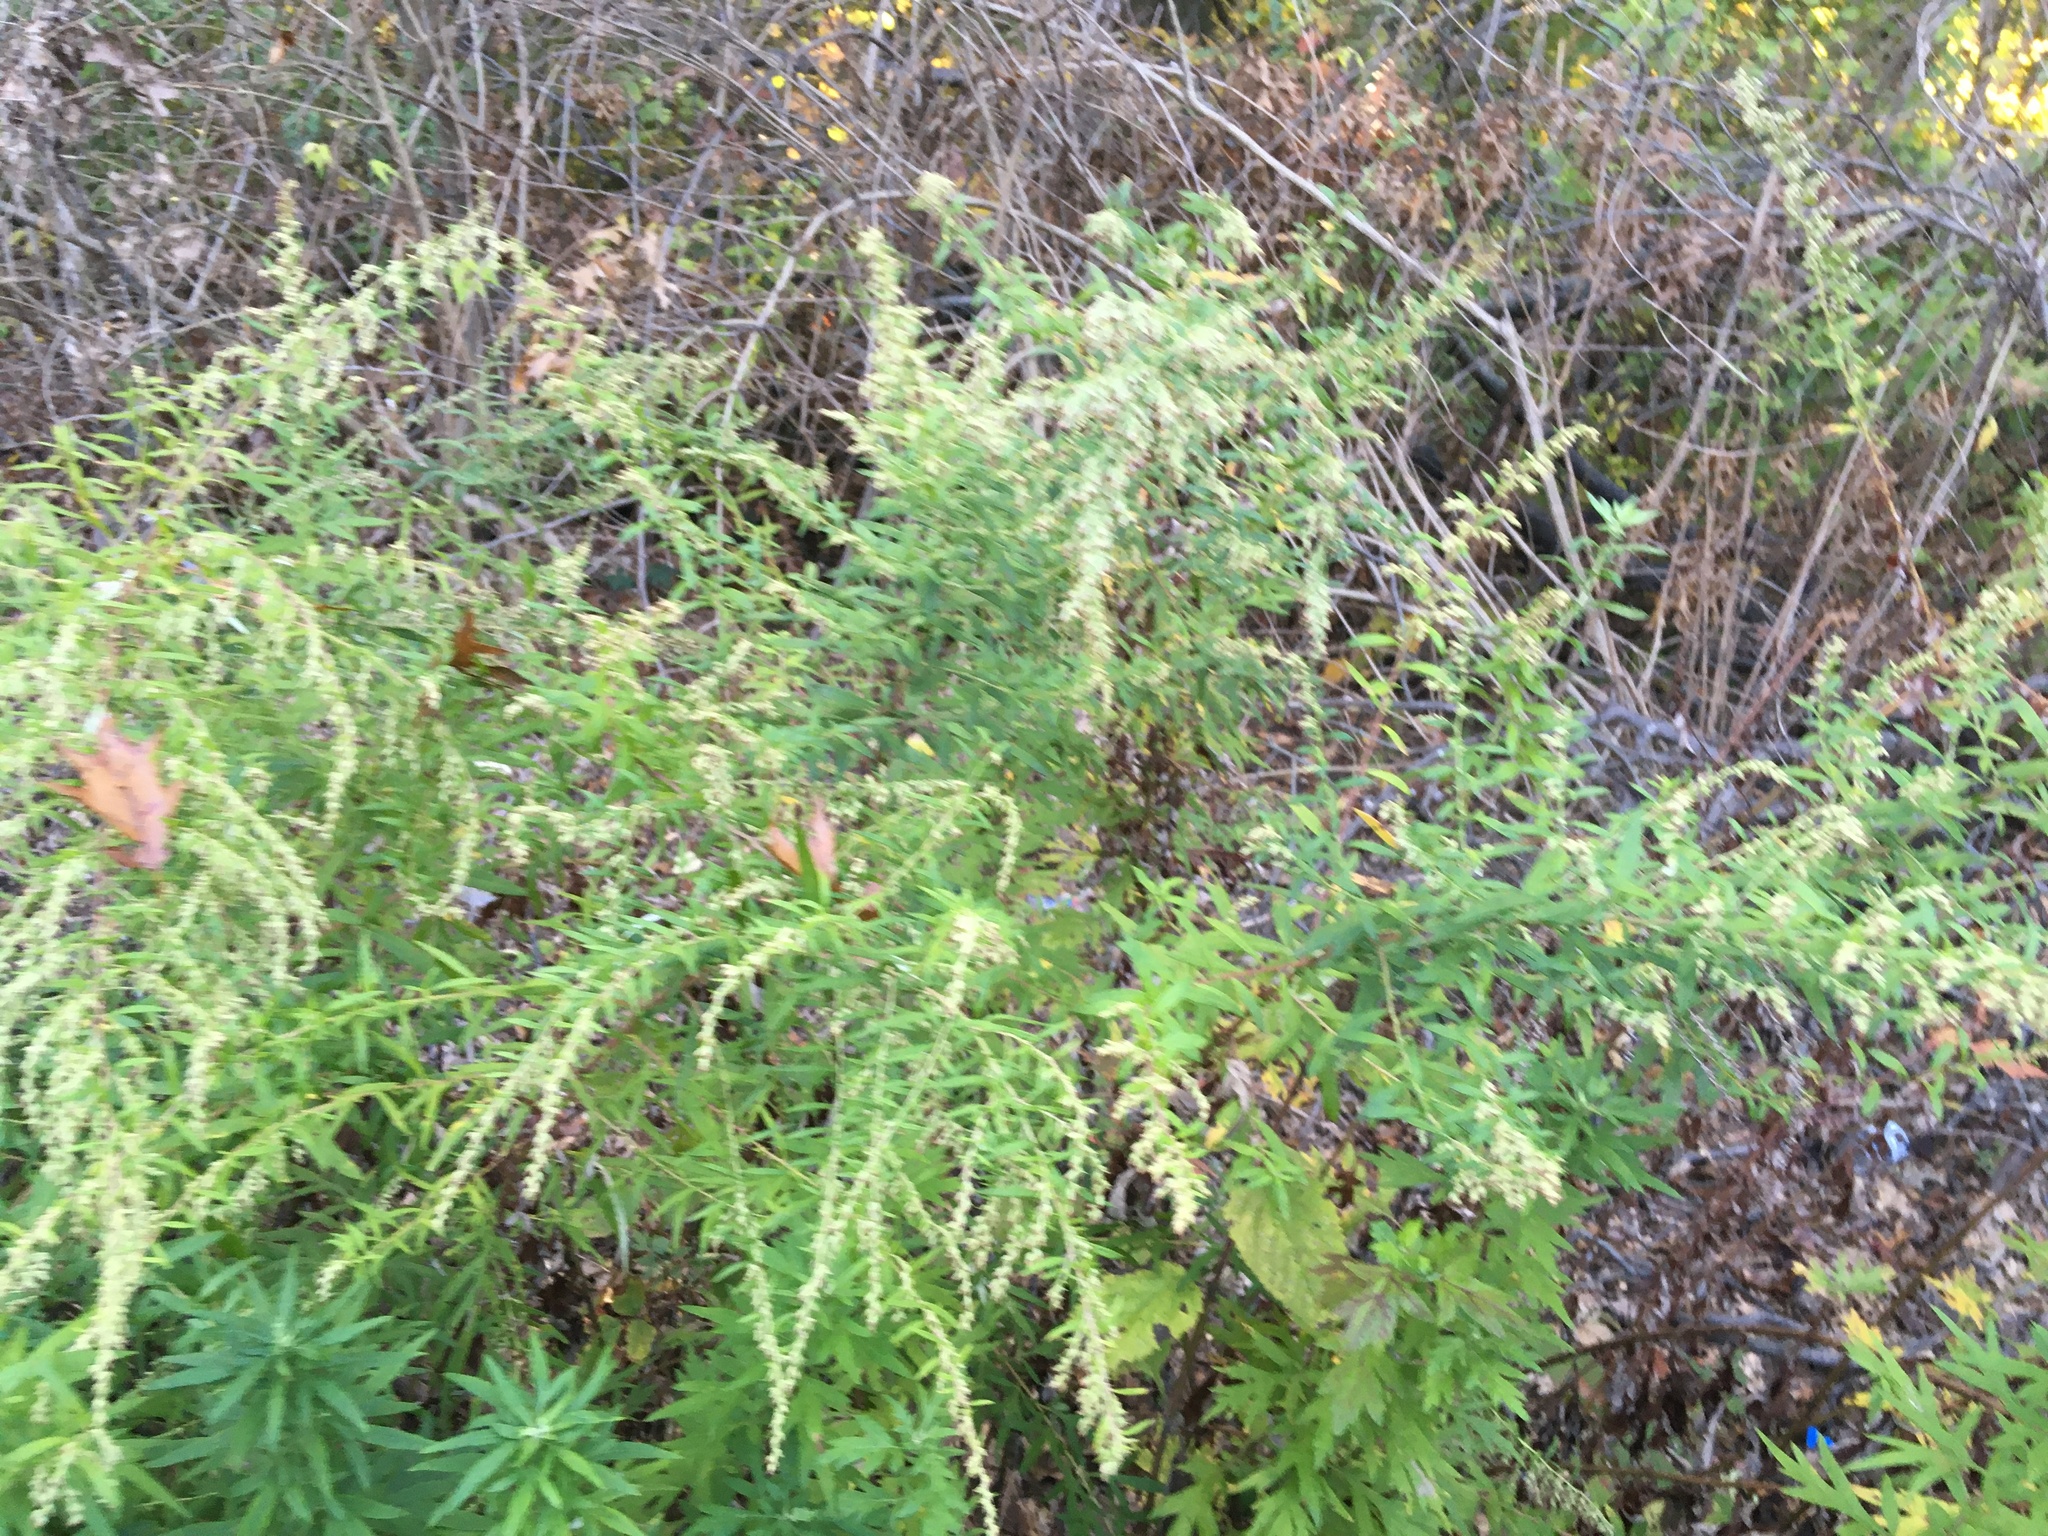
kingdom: Plantae
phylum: Tracheophyta
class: Magnoliopsida
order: Asterales
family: Asteraceae
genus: Artemisia
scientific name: Artemisia vulgaris
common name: Mugwort
